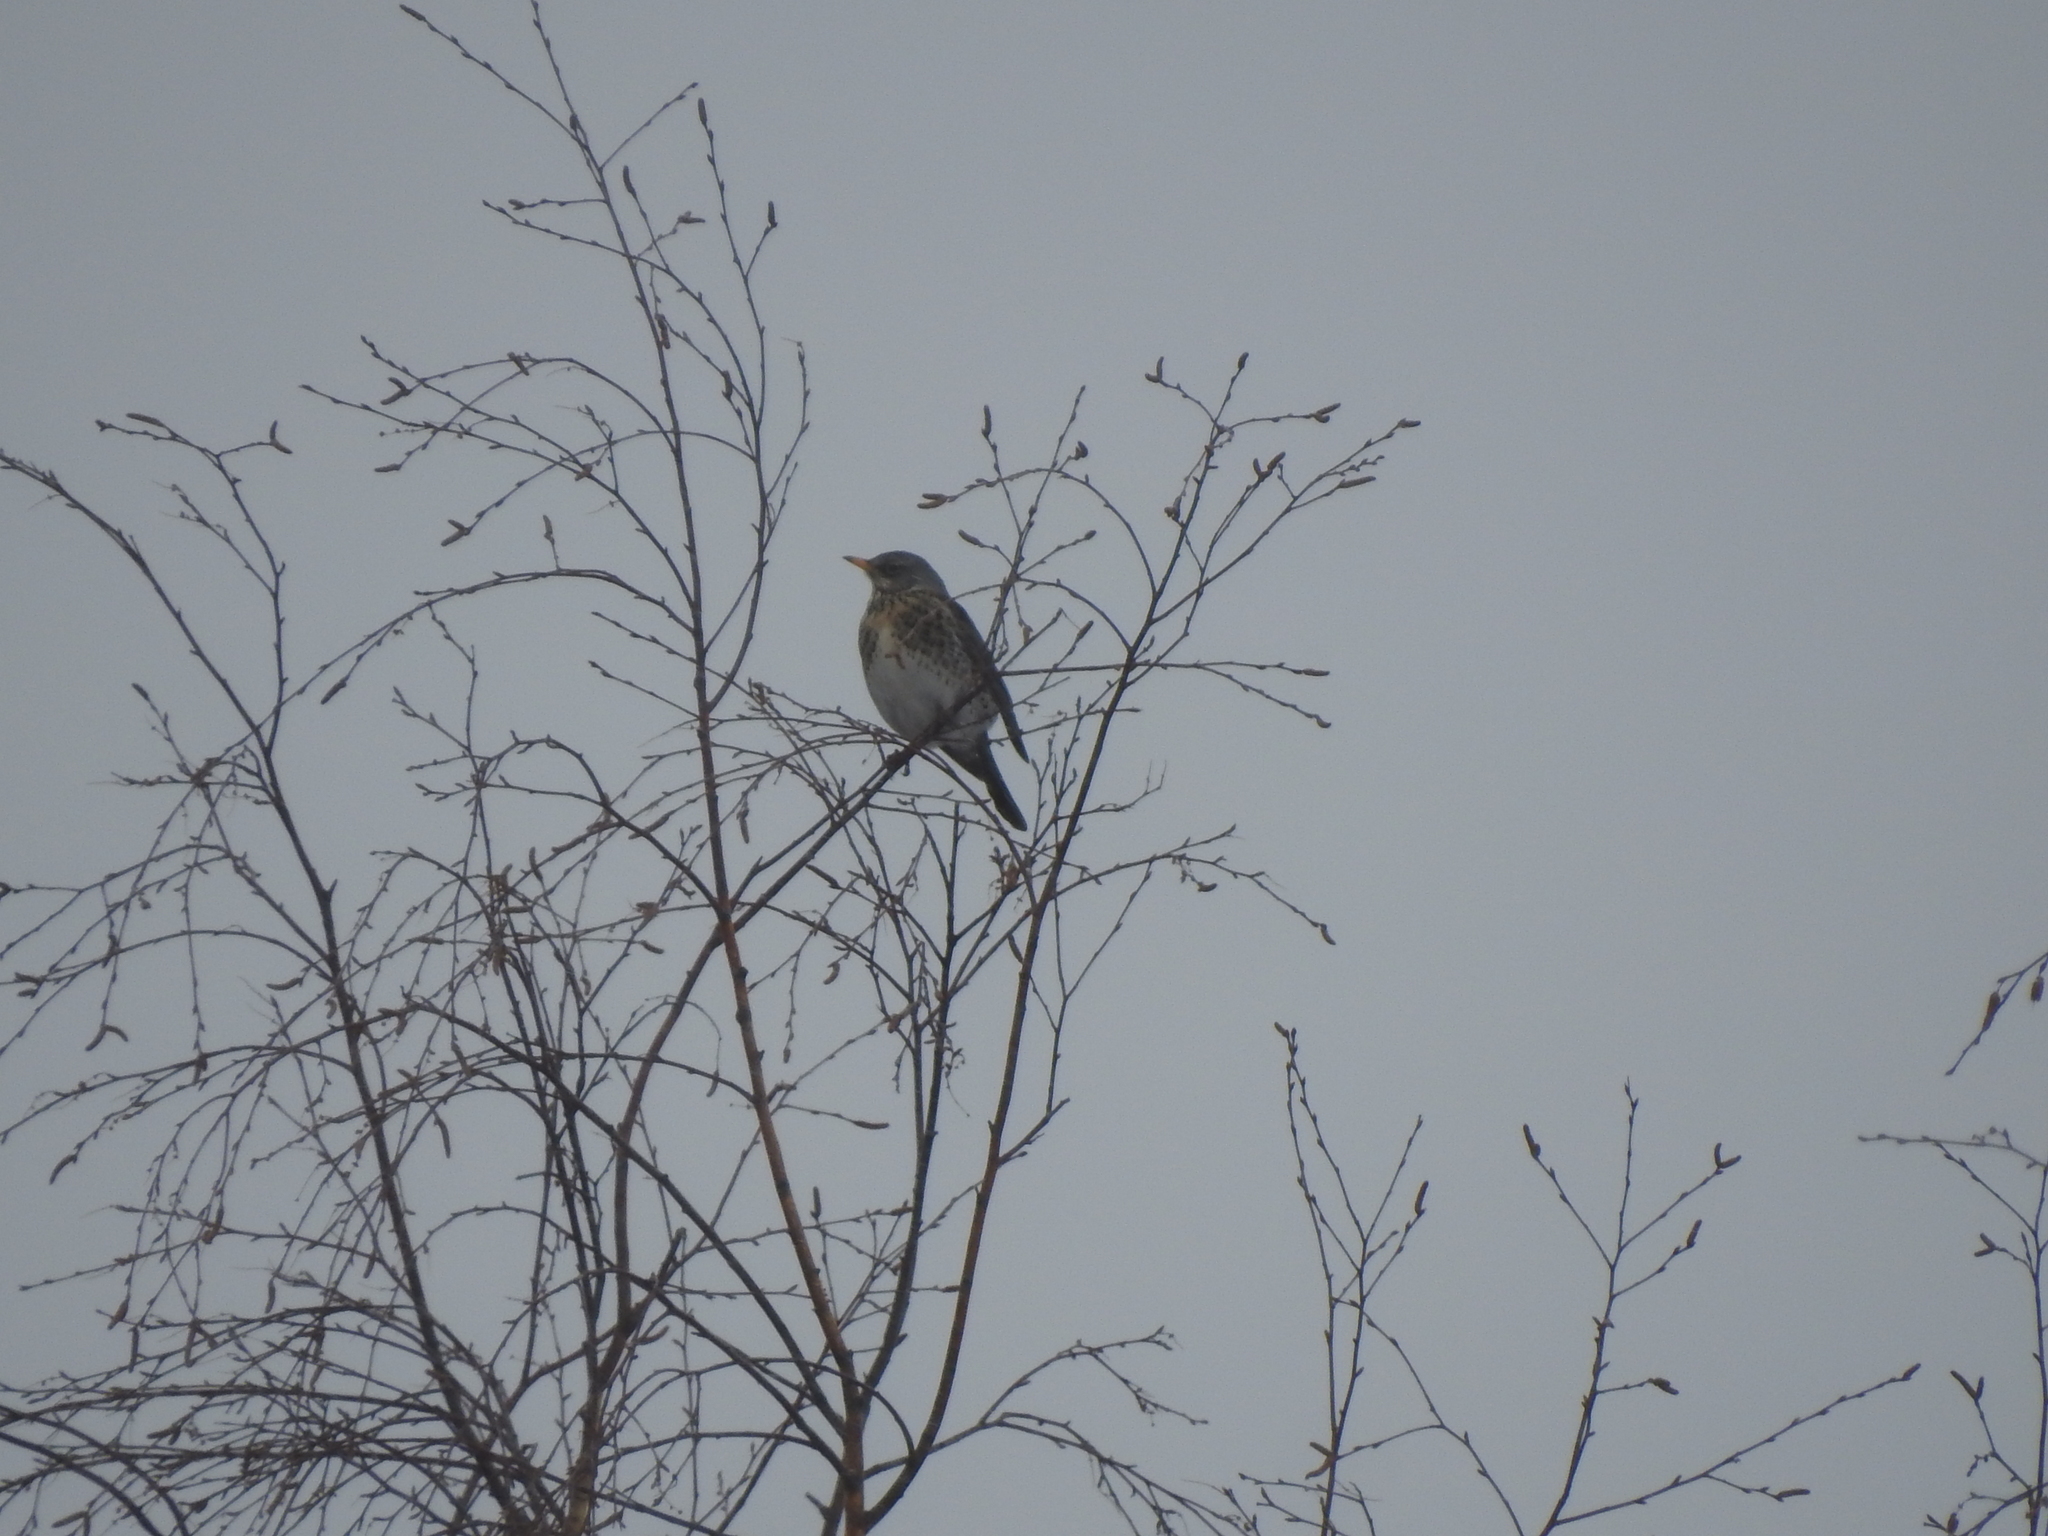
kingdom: Animalia
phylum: Chordata
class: Aves
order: Passeriformes
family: Turdidae
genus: Turdus
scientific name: Turdus pilaris
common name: Fieldfare
